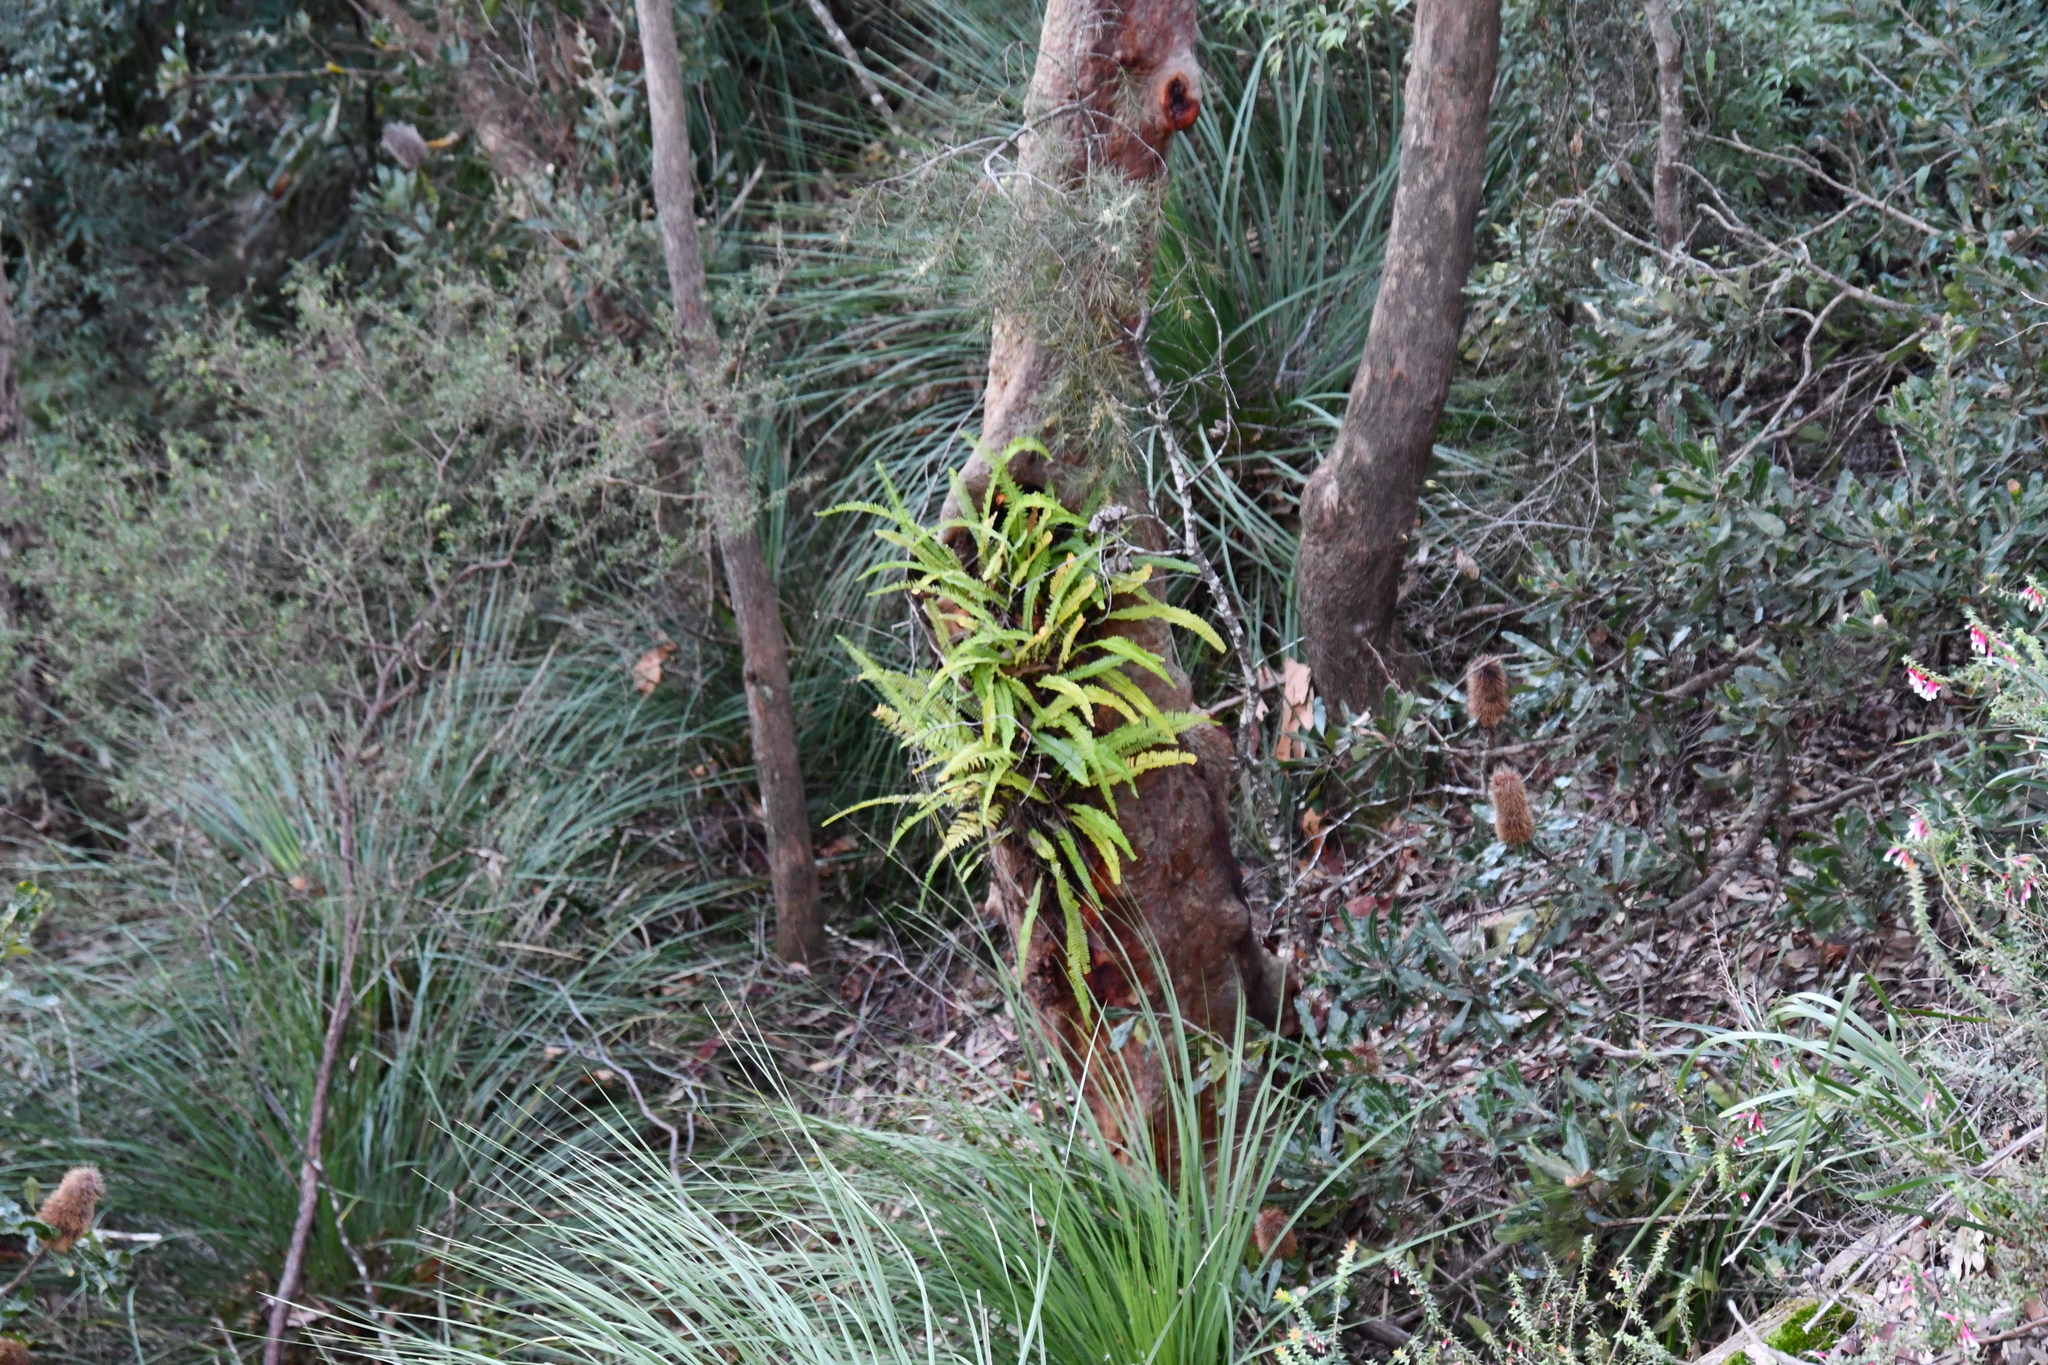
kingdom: Plantae
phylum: Tracheophyta
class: Polypodiopsida
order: Polypodiales
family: Nephrolepidaceae
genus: Nephrolepis
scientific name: Nephrolepis cordifolia
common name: Narrow swordfern
